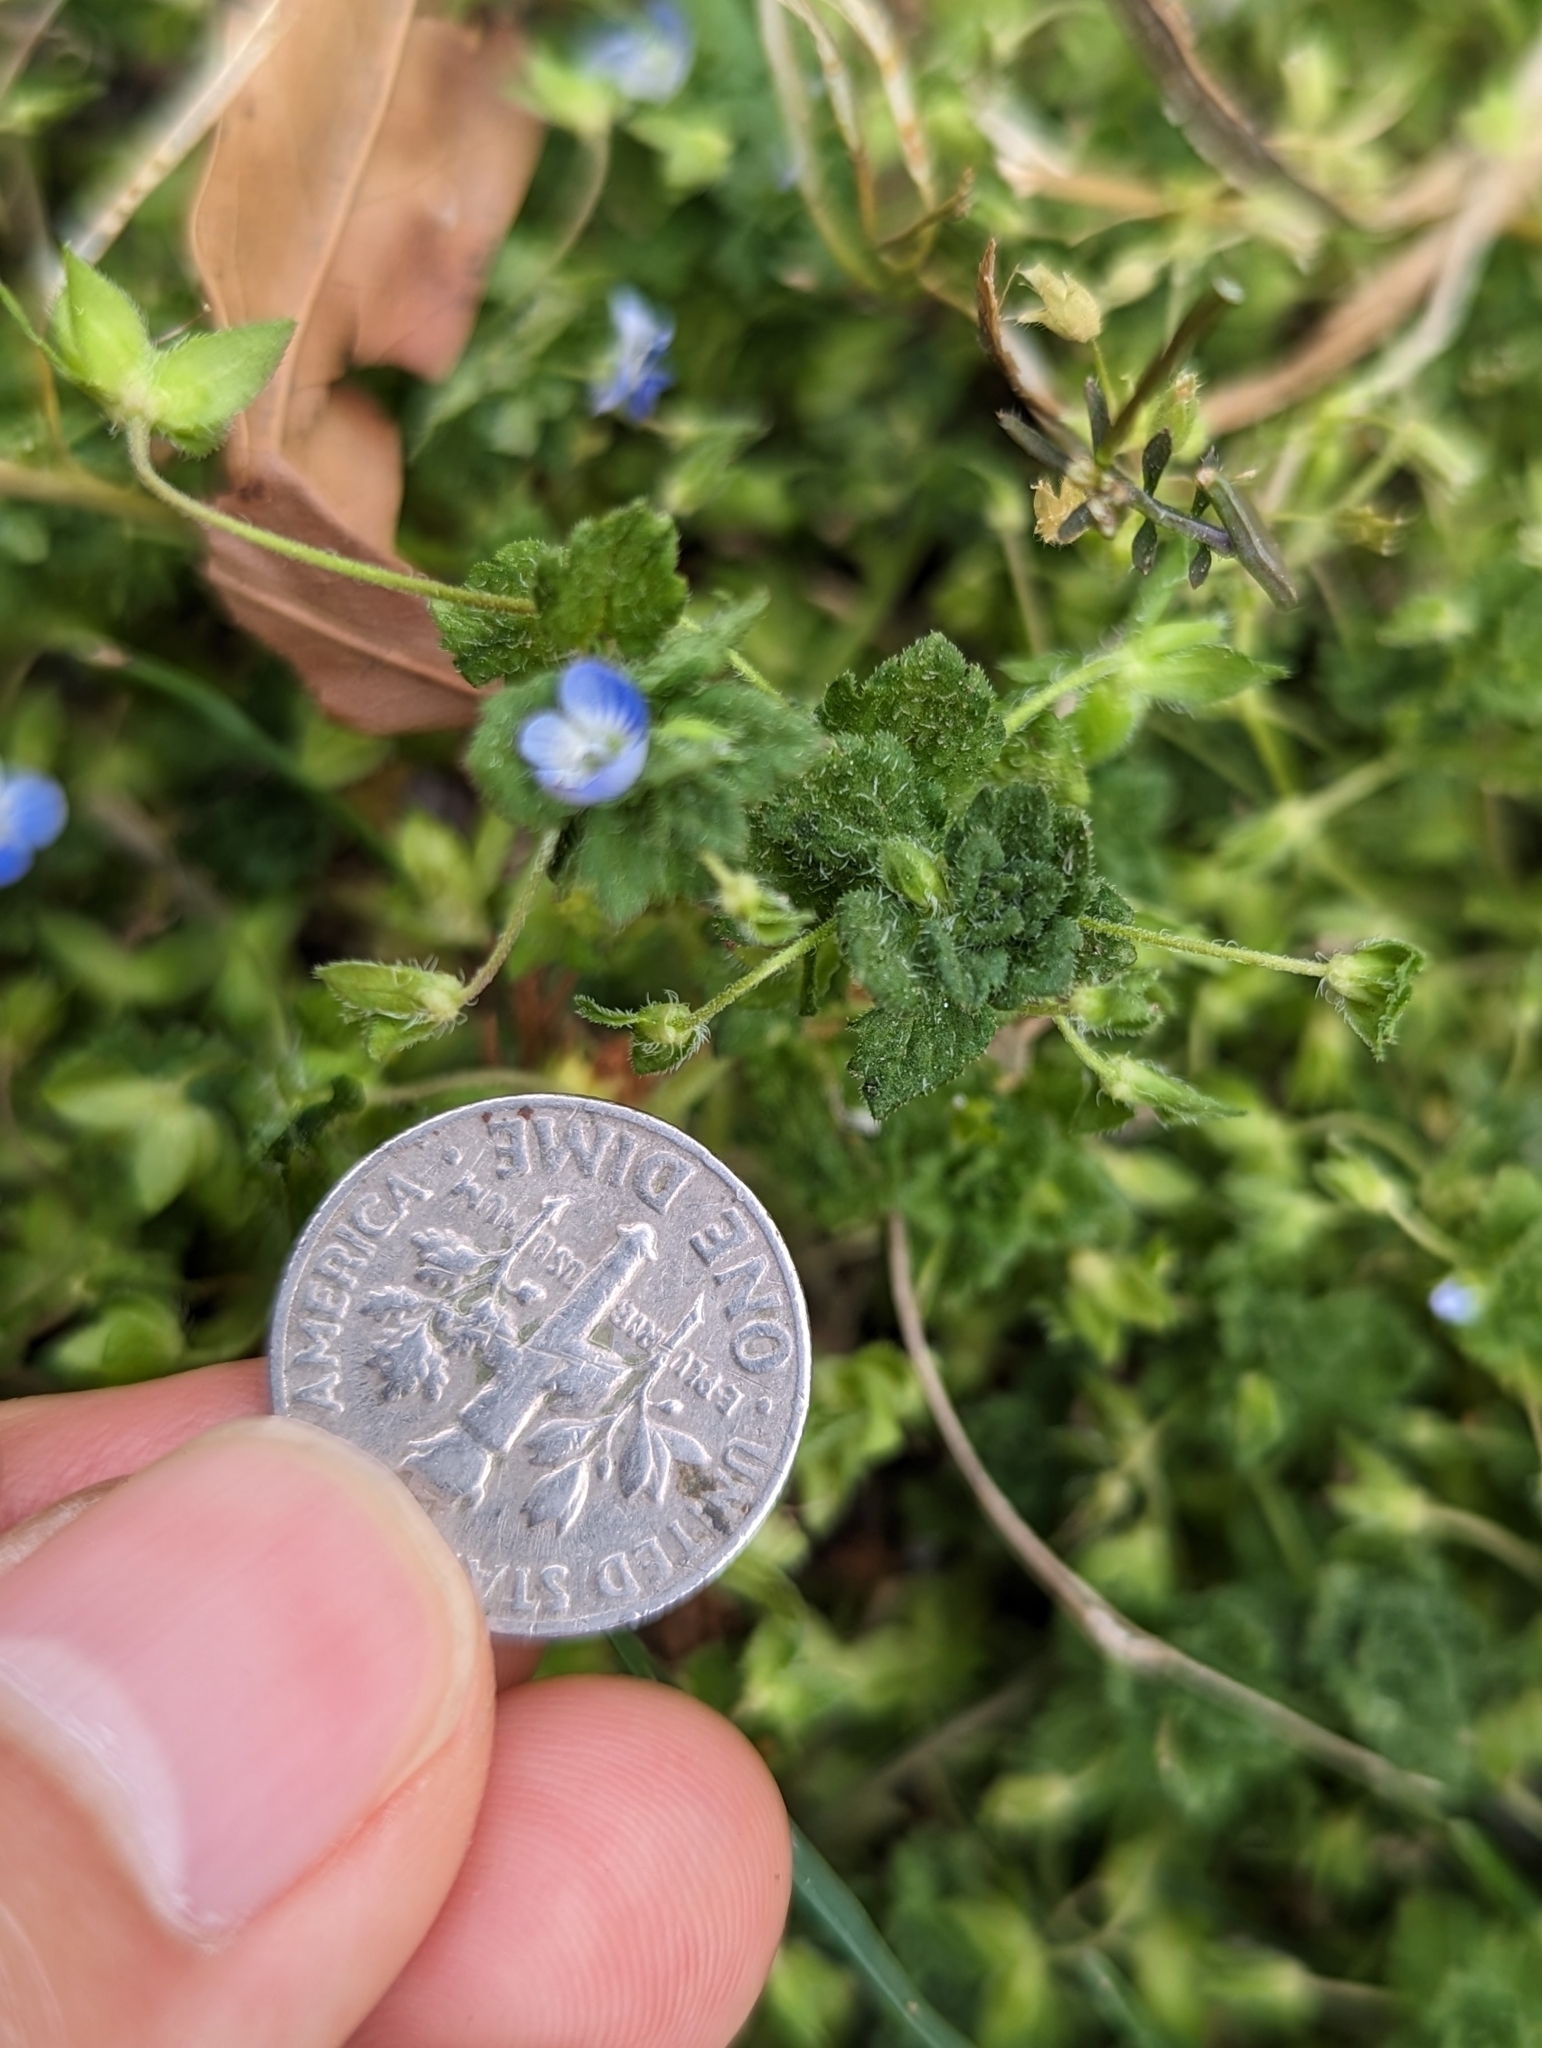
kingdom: Plantae
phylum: Tracheophyta
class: Magnoliopsida
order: Lamiales
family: Plantaginaceae
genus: Veronica
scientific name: Veronica polita
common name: Grey field-speedwell
